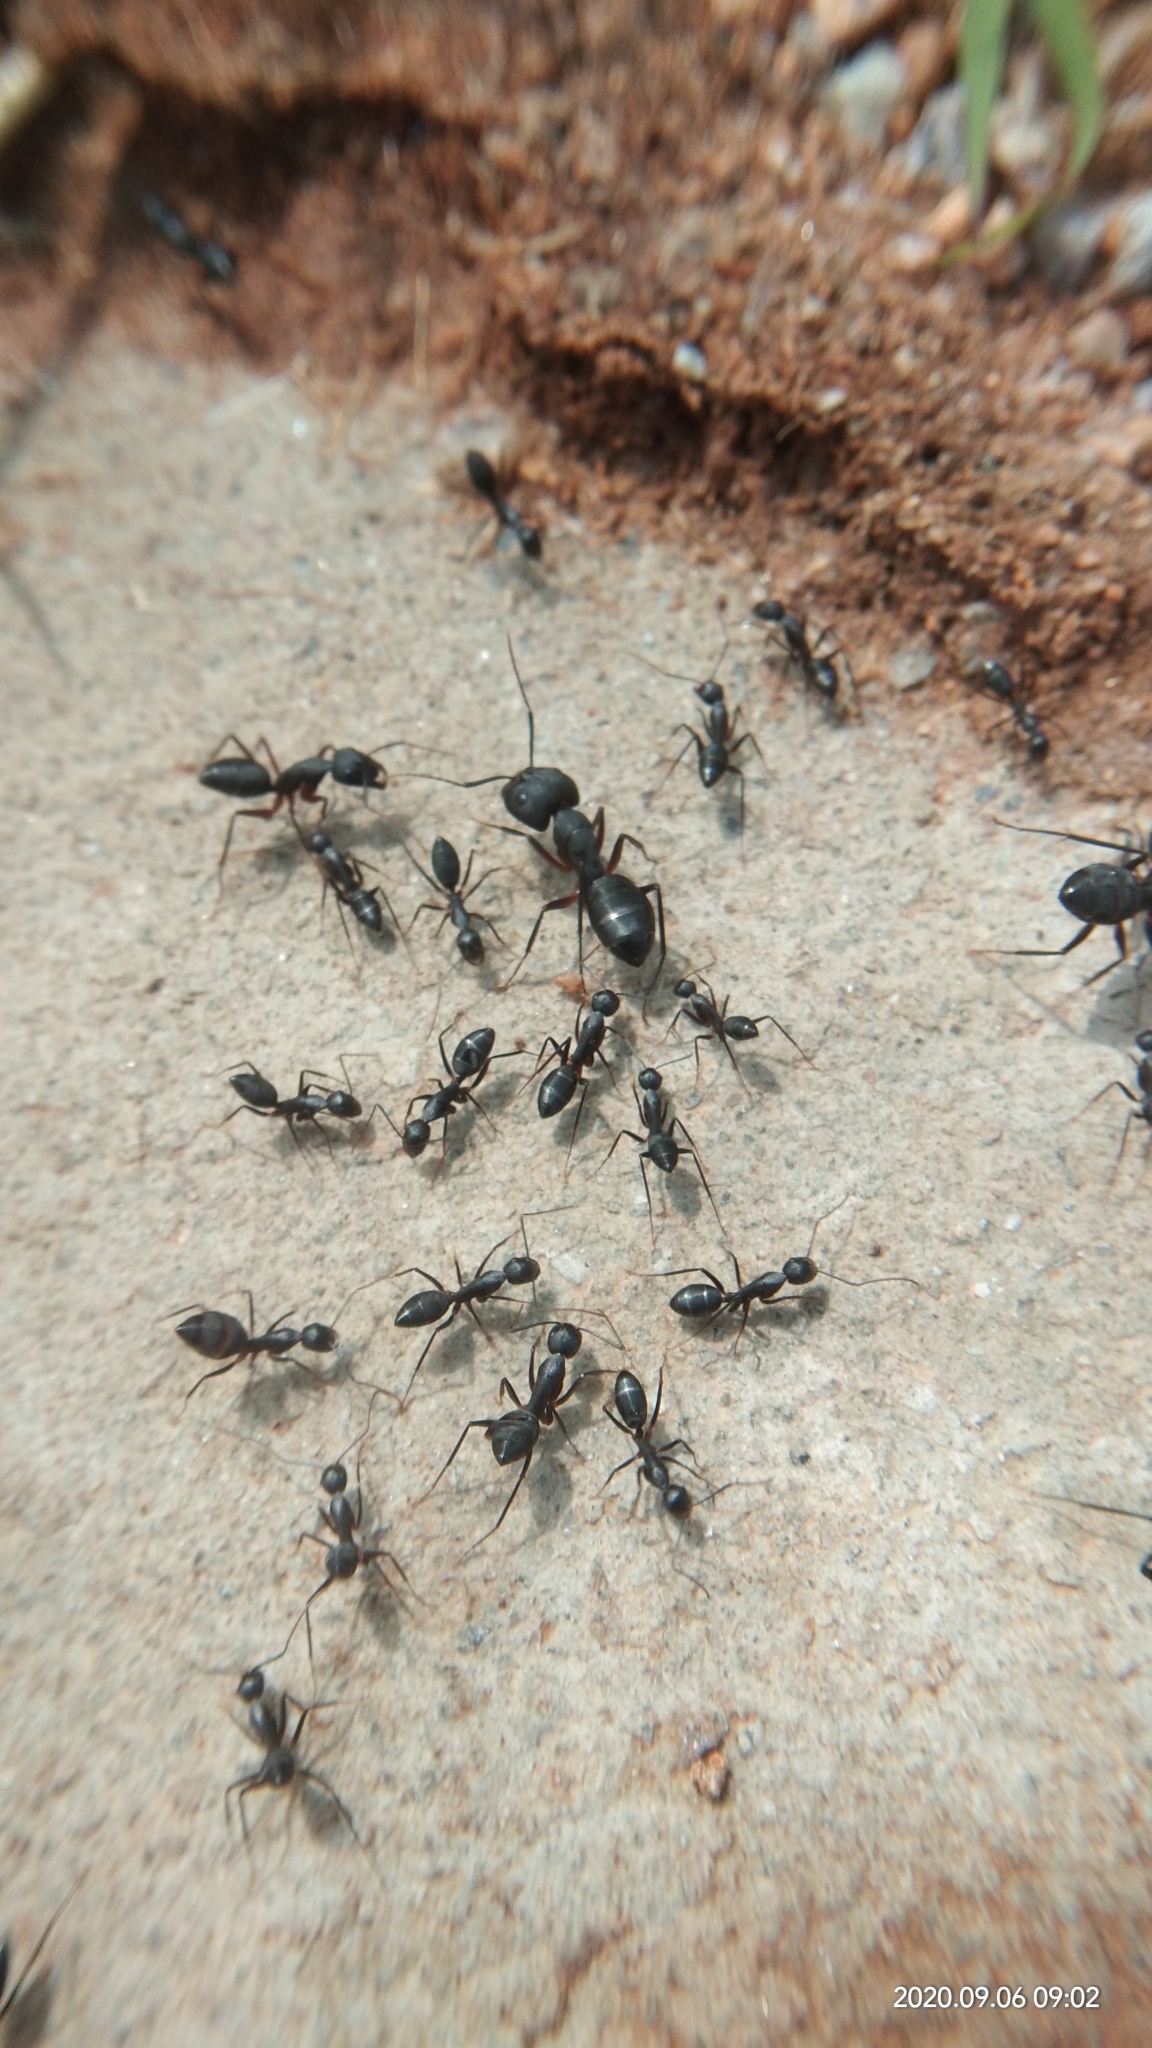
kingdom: Animalia
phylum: Arthropoda
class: Insecta
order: Hymenoptera
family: Formicidae
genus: Camponotus
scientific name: Camponotus compressus
